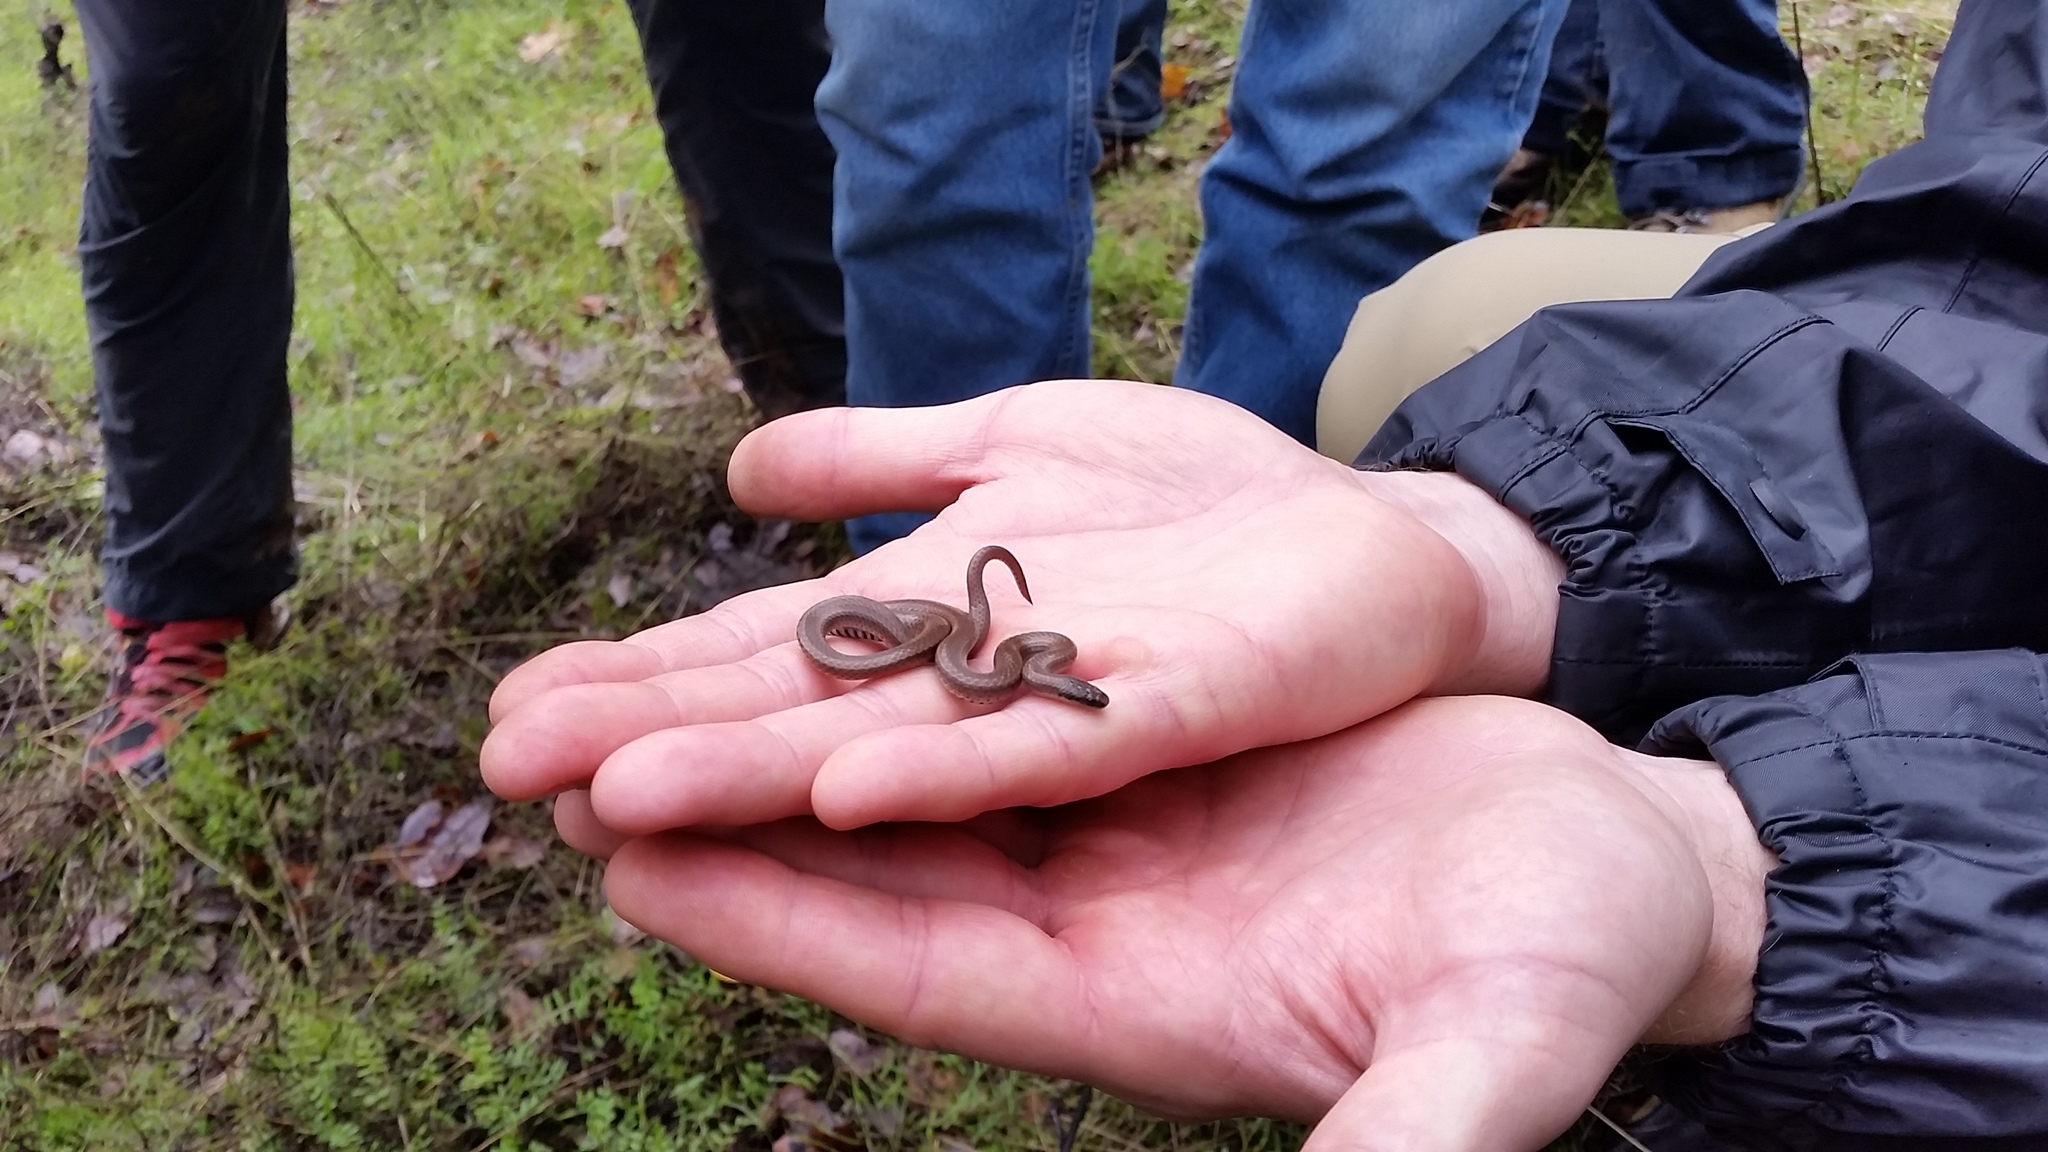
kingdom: Animalia
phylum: Chordata
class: Squamata
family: Colubridae
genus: Contia
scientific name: Contia tenuis
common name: Sharptail snake
